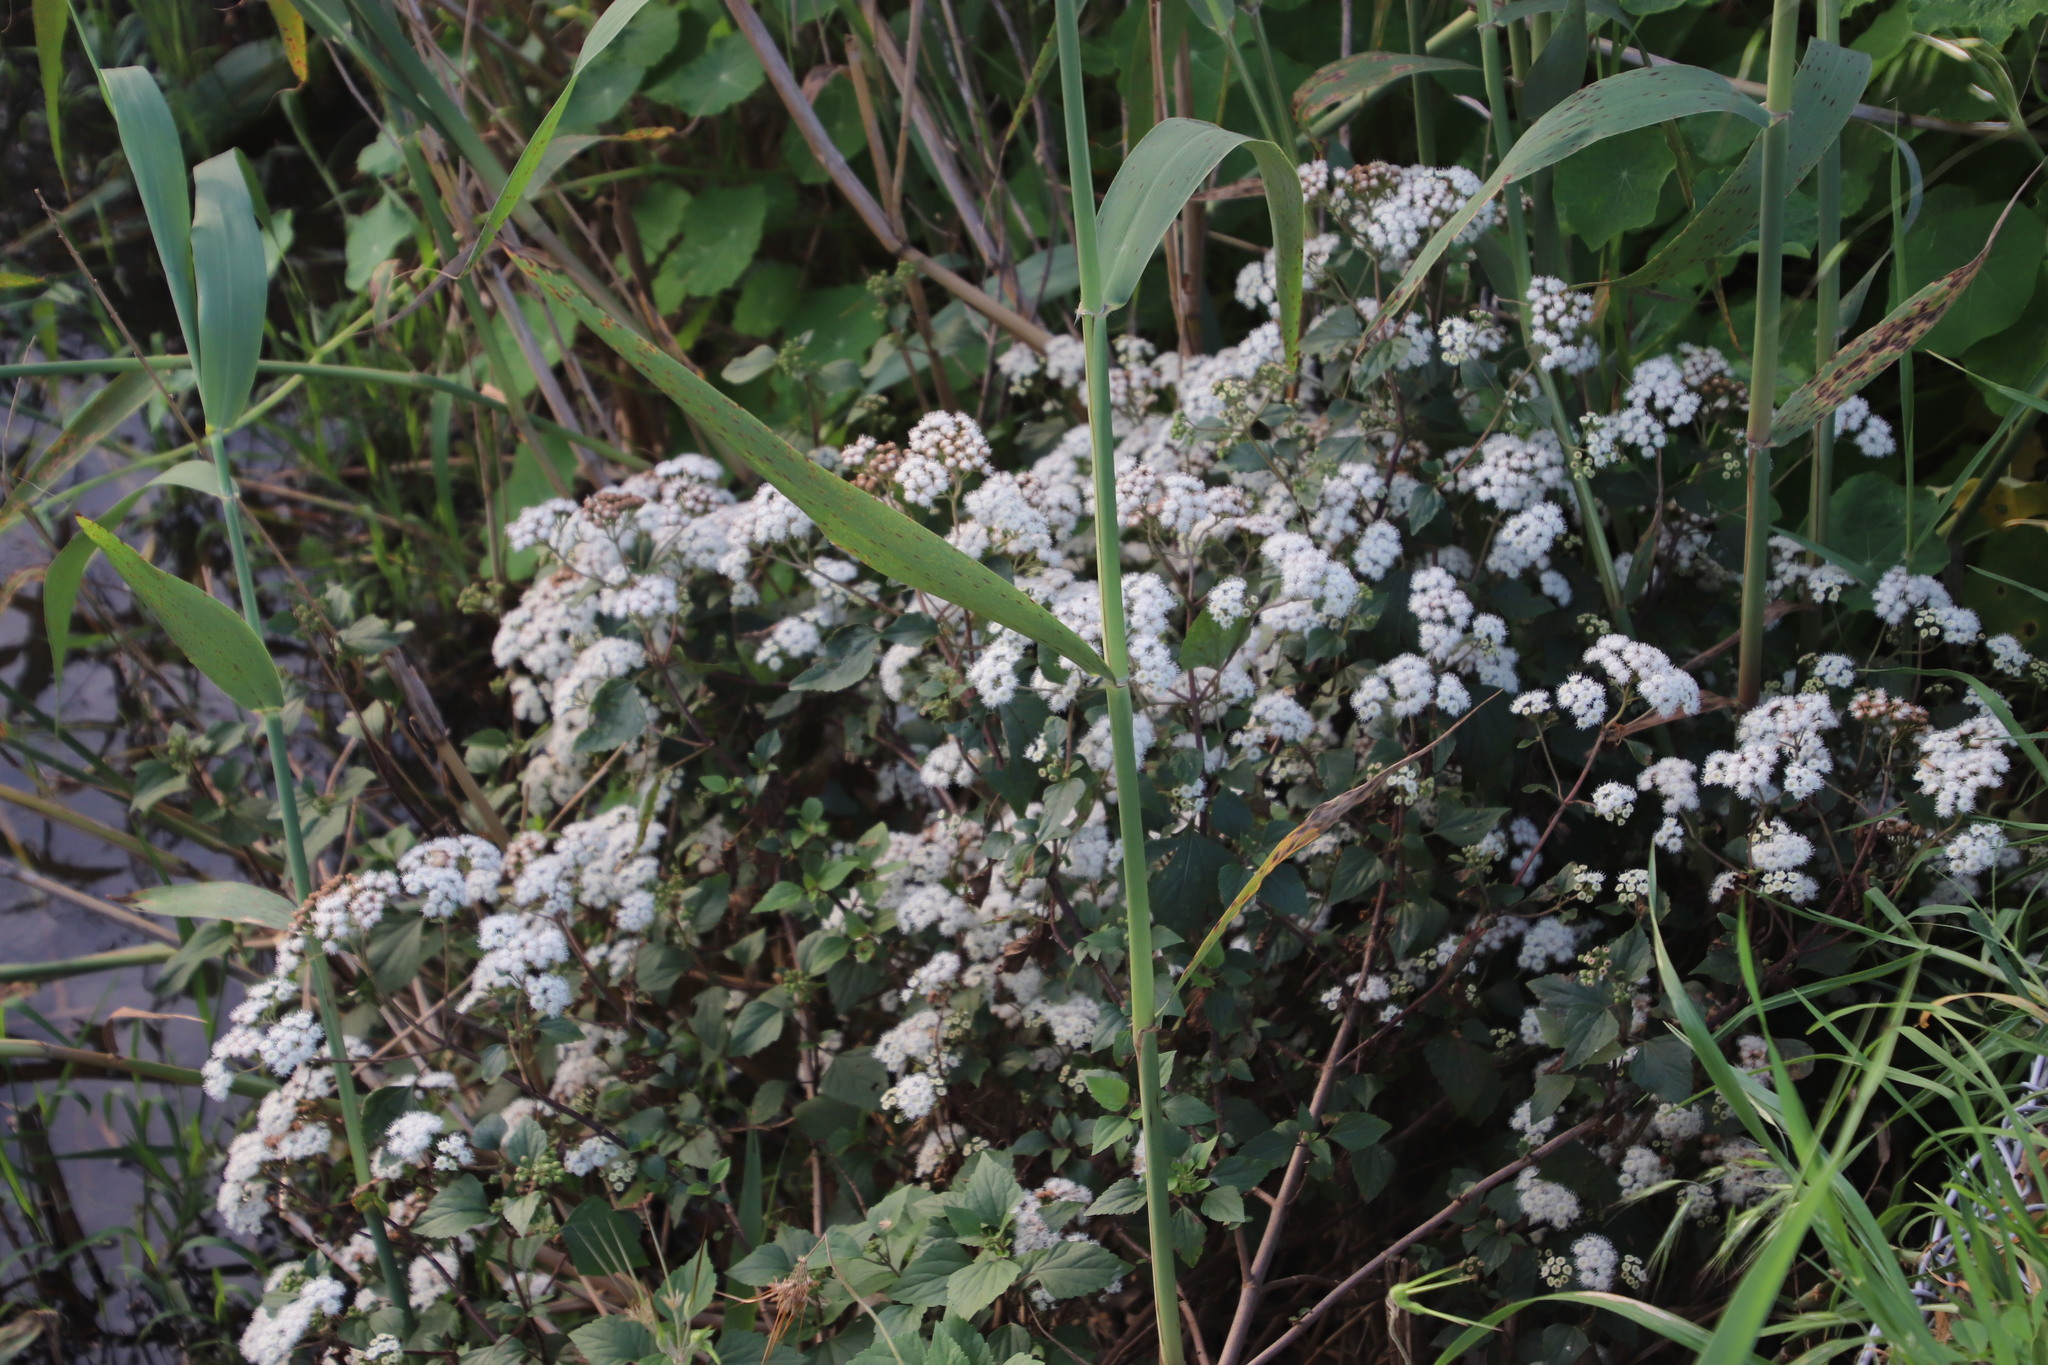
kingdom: Plantae
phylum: Tracheophyta
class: Magnoliopsida
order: Asterales
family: Asteraceae
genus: Ageratina
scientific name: Ageratina adenophora
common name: Sticky snakeroot
